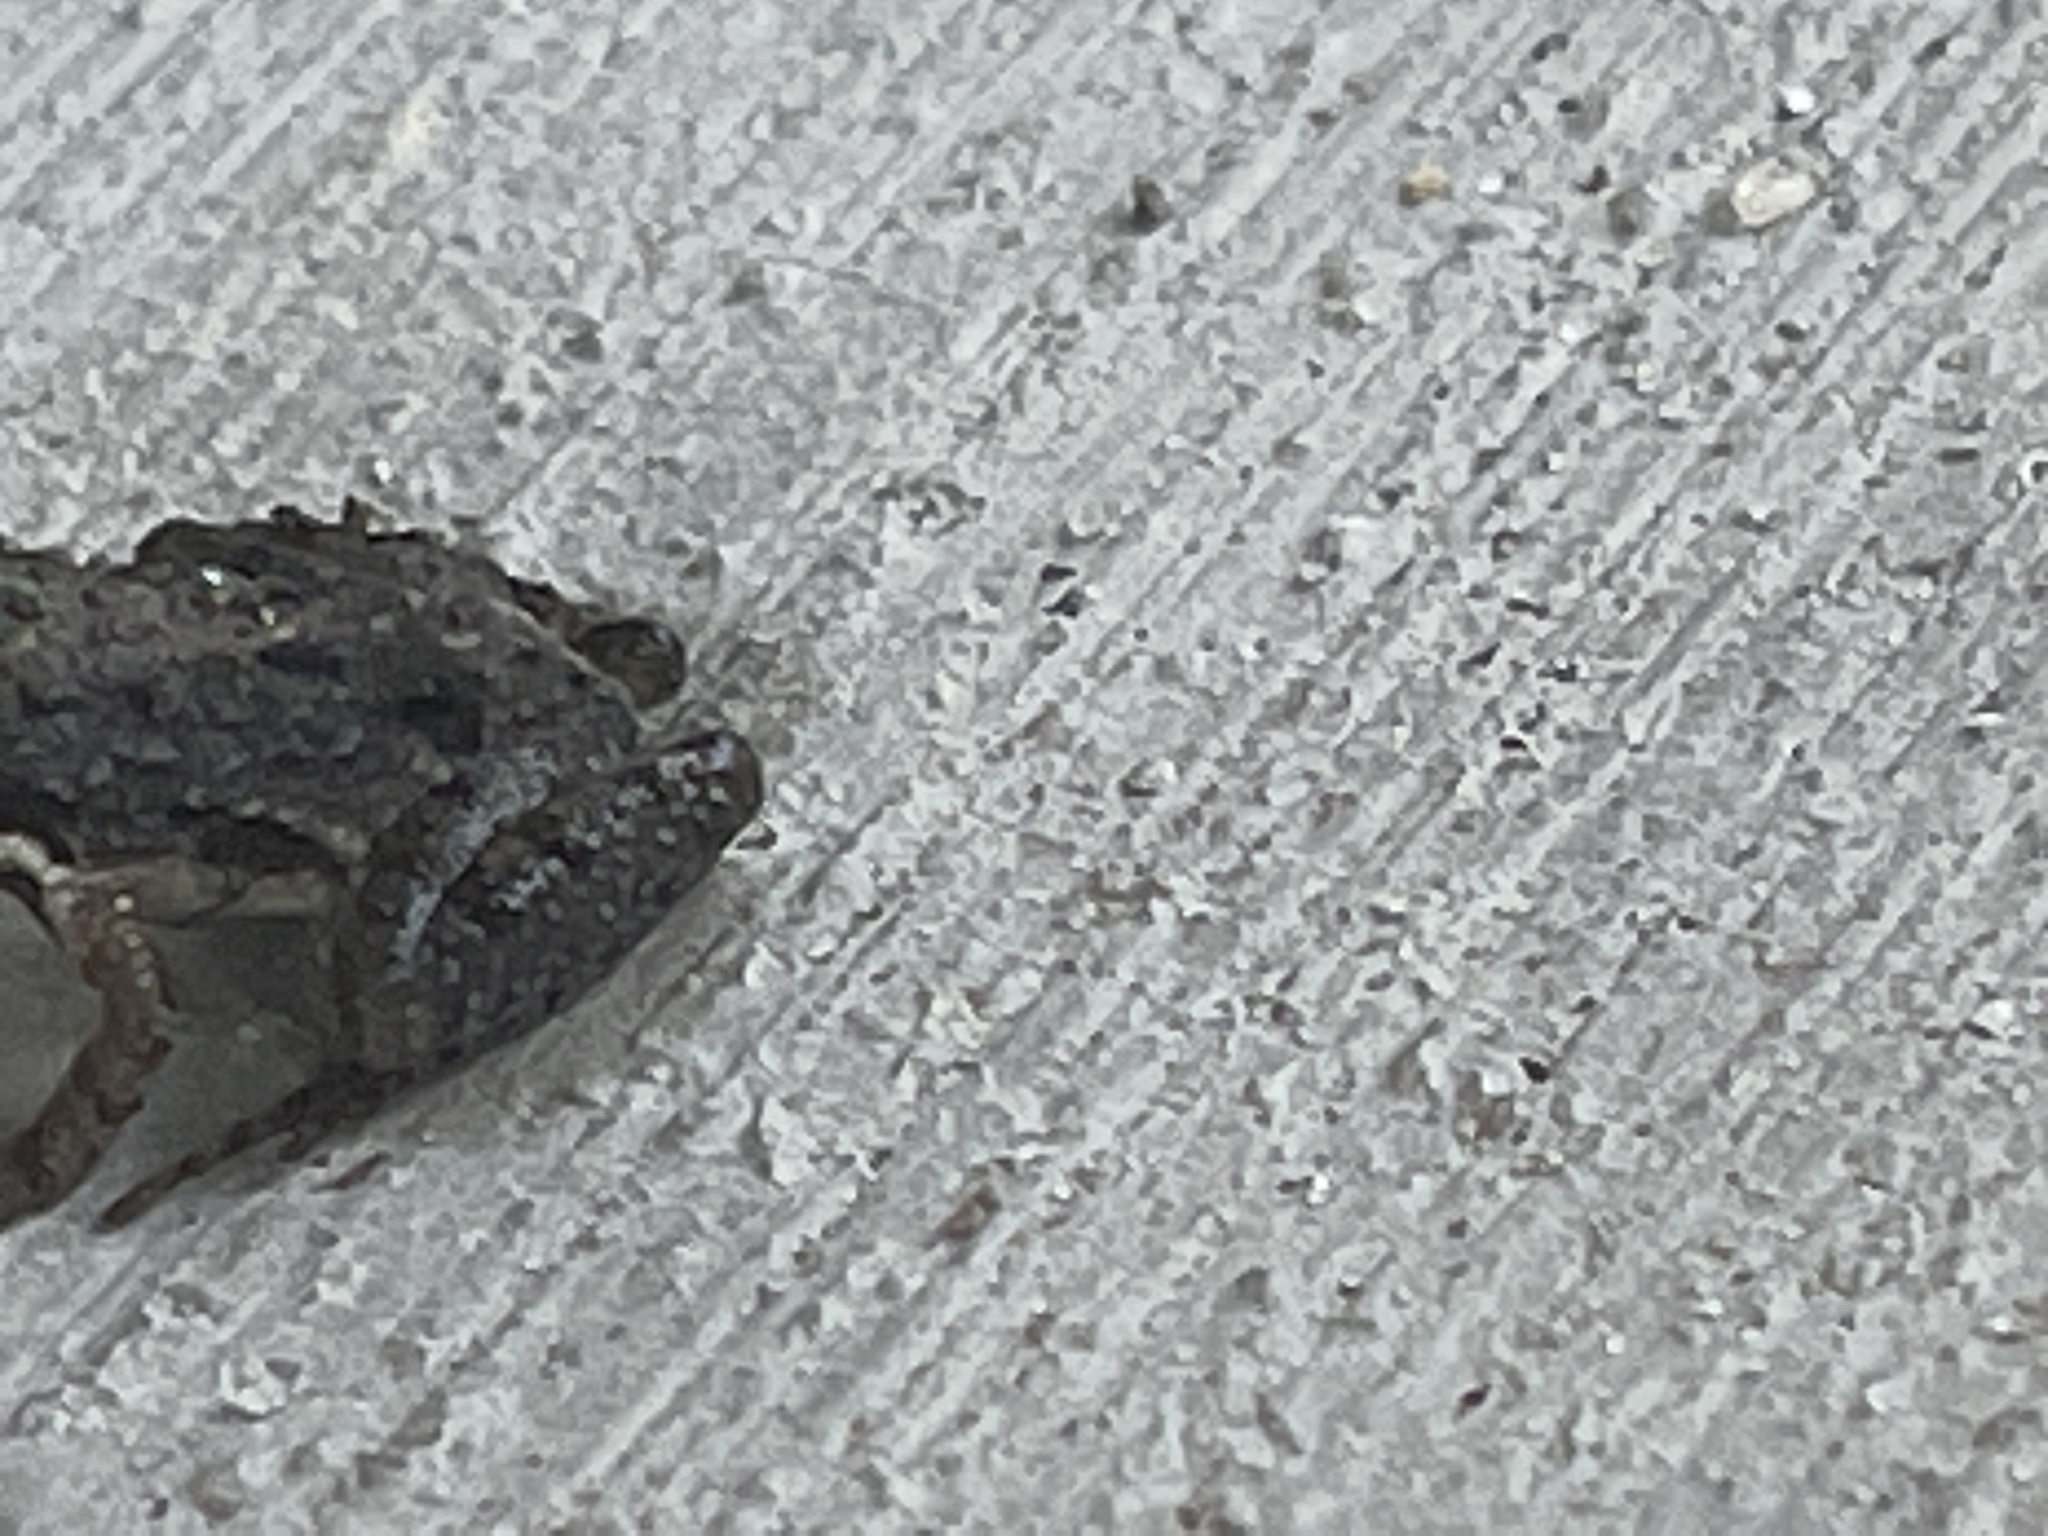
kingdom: Animalia
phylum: Chordata
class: Amphibia
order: Anura
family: Hylidae
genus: Acris
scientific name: Acris gryllus
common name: Southern cricket frog
